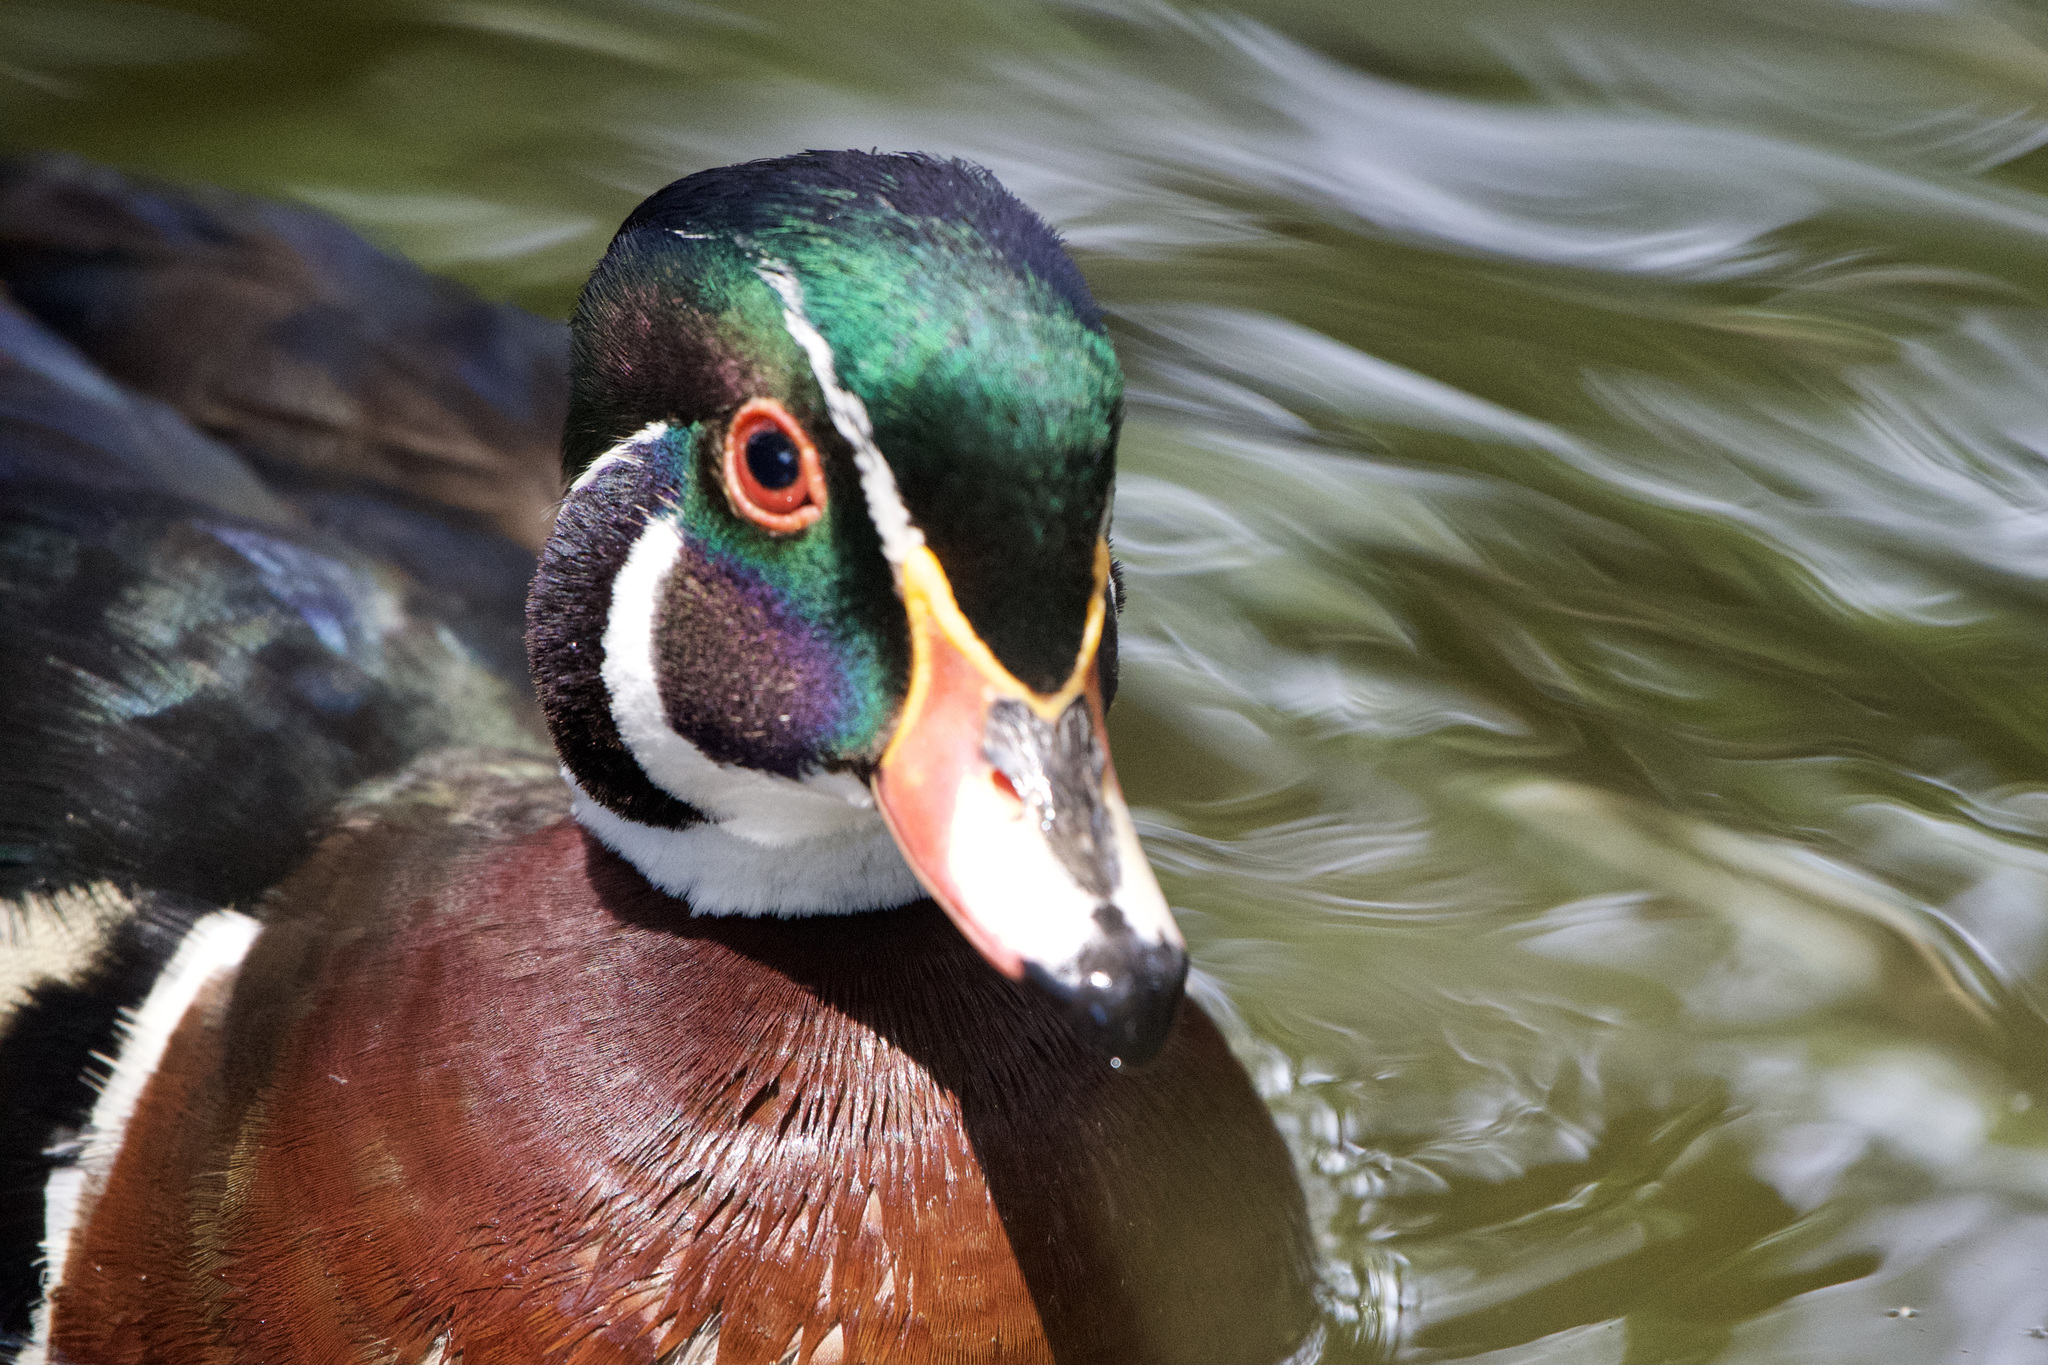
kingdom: Animalia
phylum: Chordata
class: Aves
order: Anseriformes
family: Anatidae
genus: Aix
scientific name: Aix sponsa
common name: Wood duck
